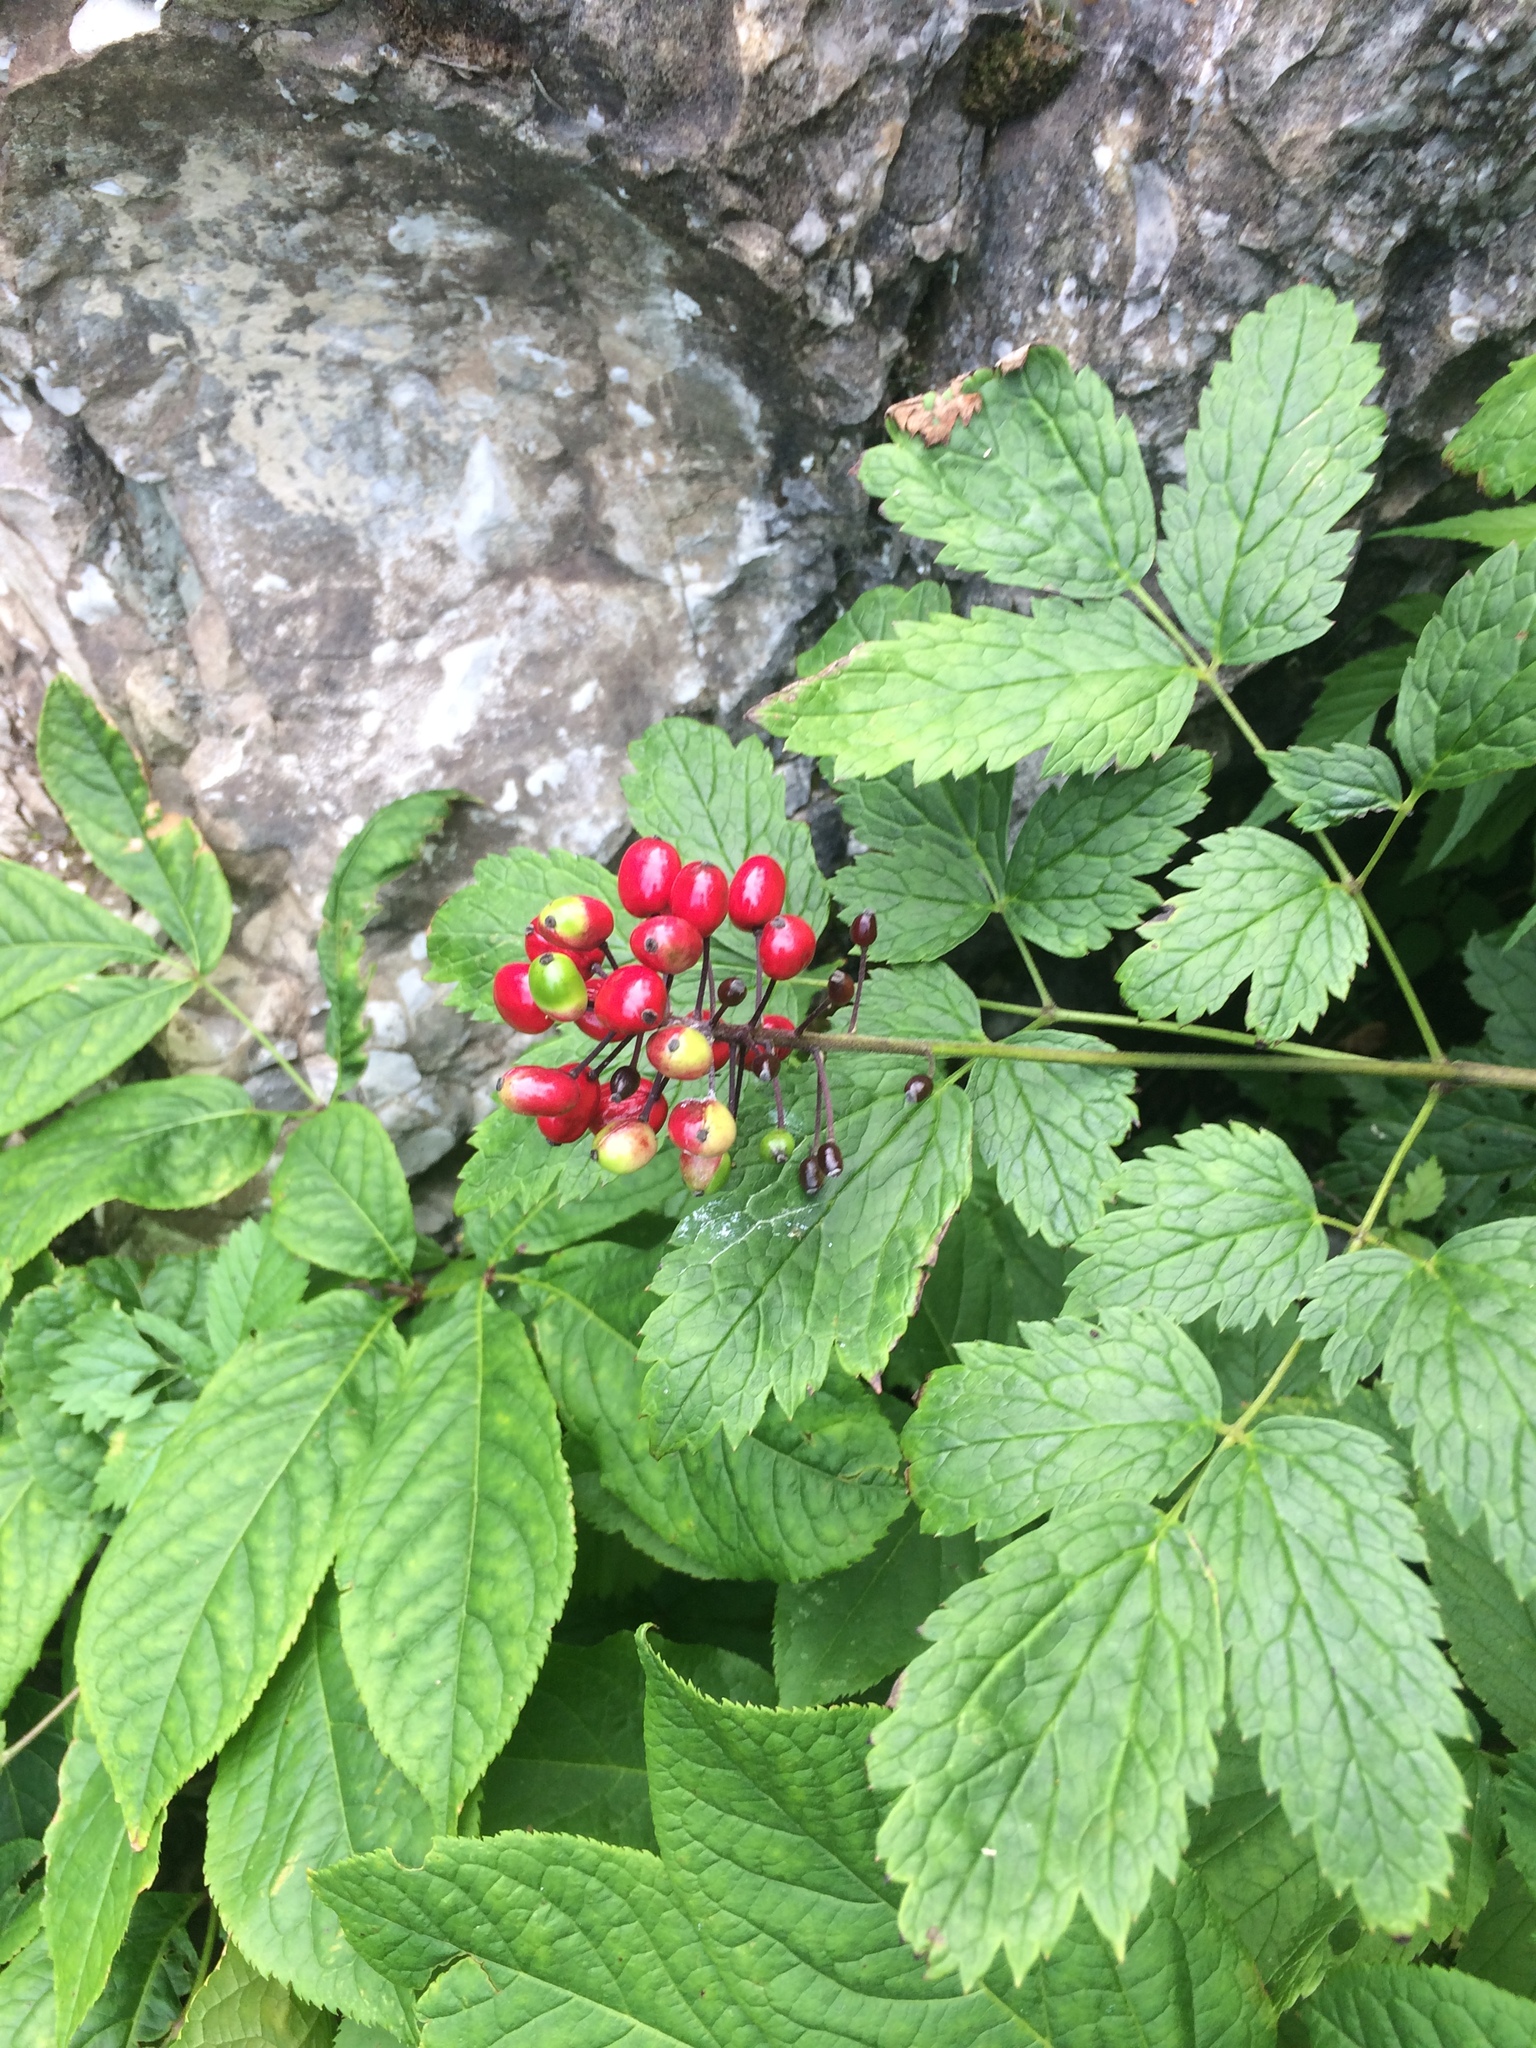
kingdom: Plantae
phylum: Tracheophyta
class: Magnoliopsida
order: Ranunculales
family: Ranunculaceae
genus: Actaea
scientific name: Actaea rubra
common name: Red baneberry
